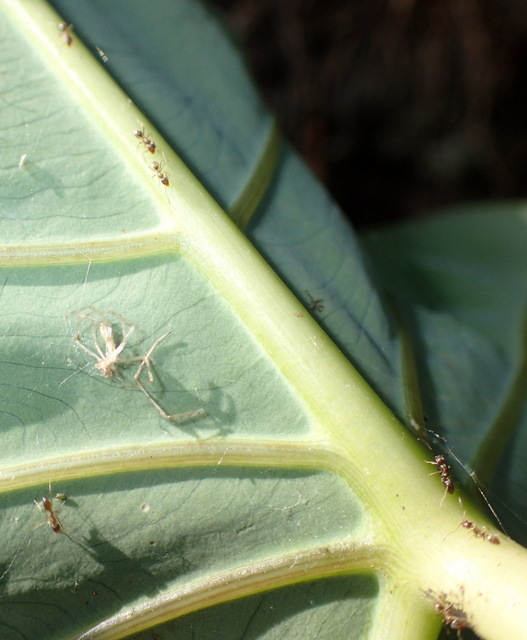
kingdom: Animalia
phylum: Arthropoda
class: Insecta
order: Hymenoptera
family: Formicidae
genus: Linepithema
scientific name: Linepithema humile
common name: Argentine ant
